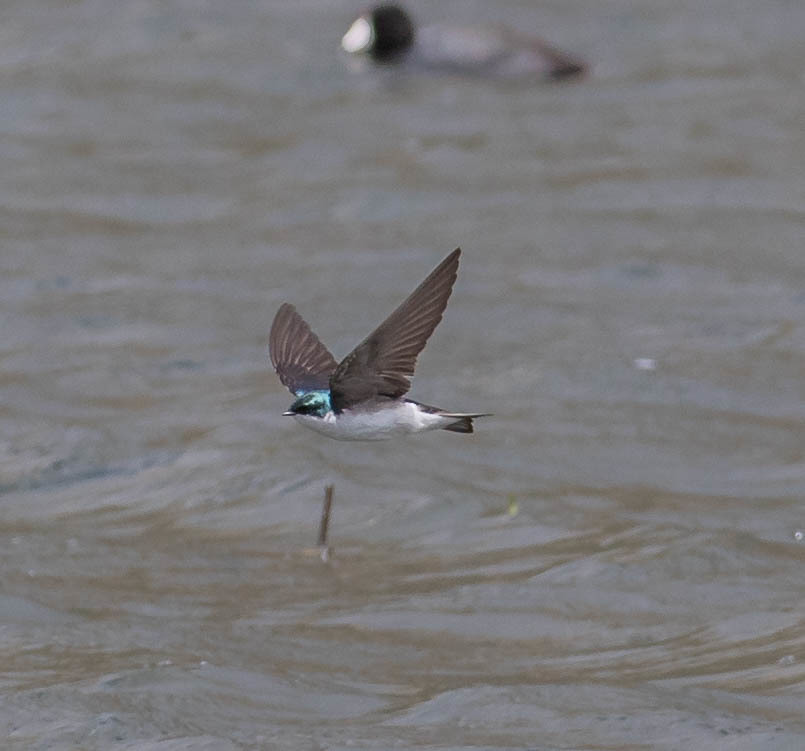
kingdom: Animalia
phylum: Chordata
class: Aves
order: Passeriformes
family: Hirundinidae
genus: Tachycineta
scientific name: Tachycineta bicolor
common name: Tree swallow
